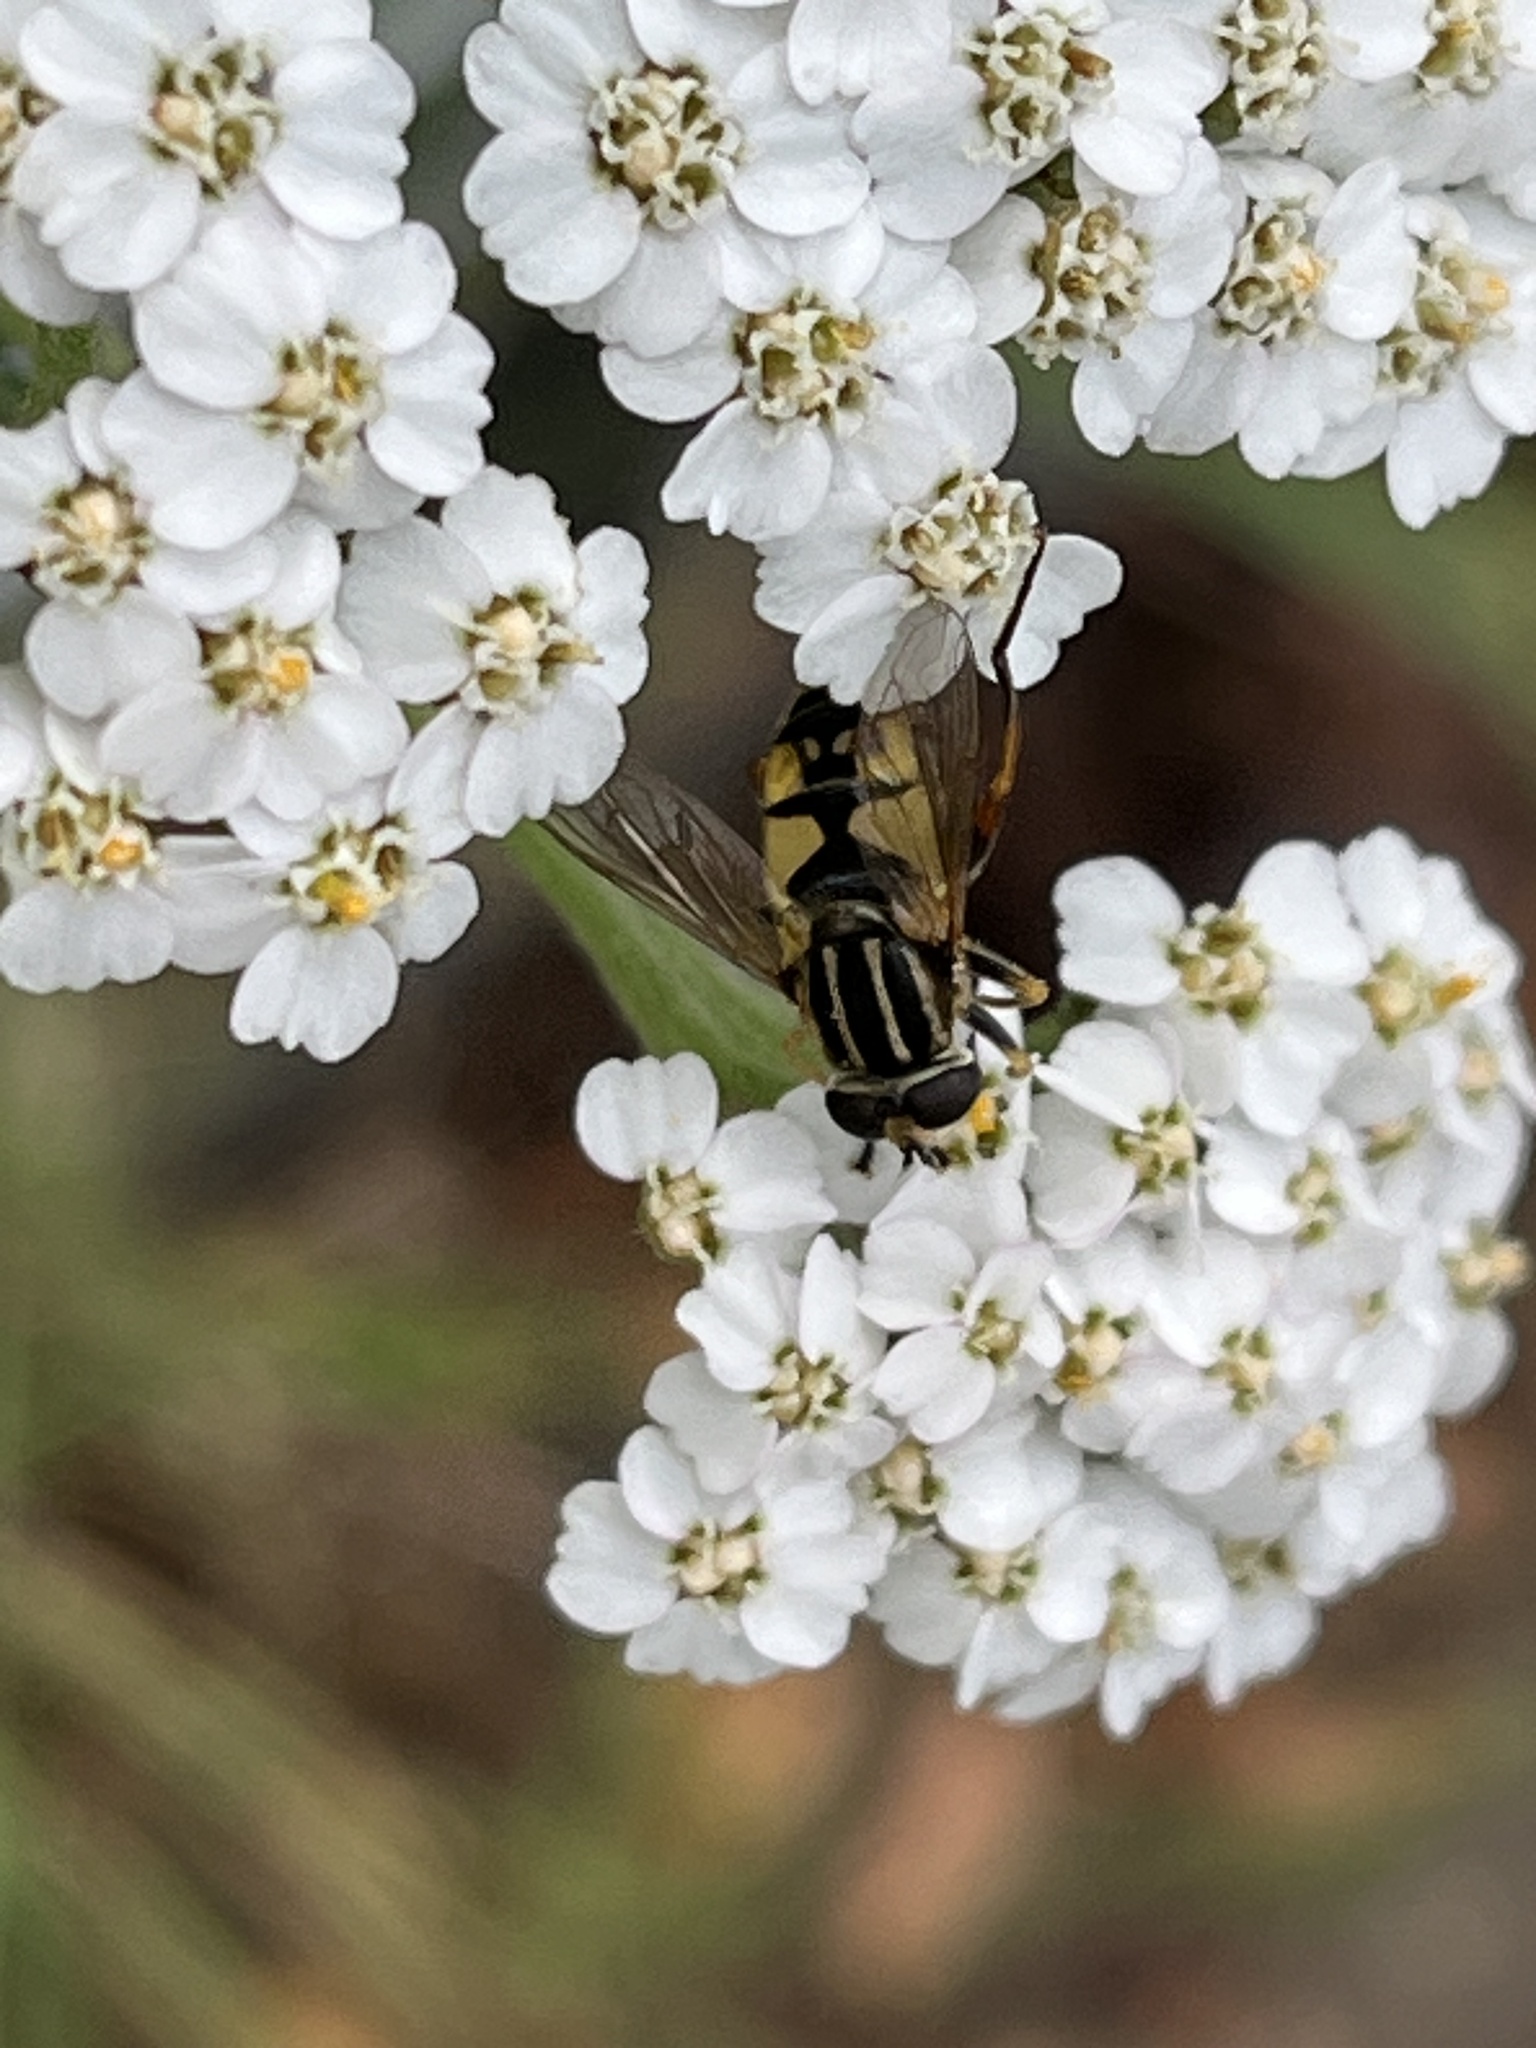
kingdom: Animalia
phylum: Arthropoda
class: Insecta
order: Diptera
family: Syrphidae
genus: Helophilus
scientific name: Helophilus pendulus
